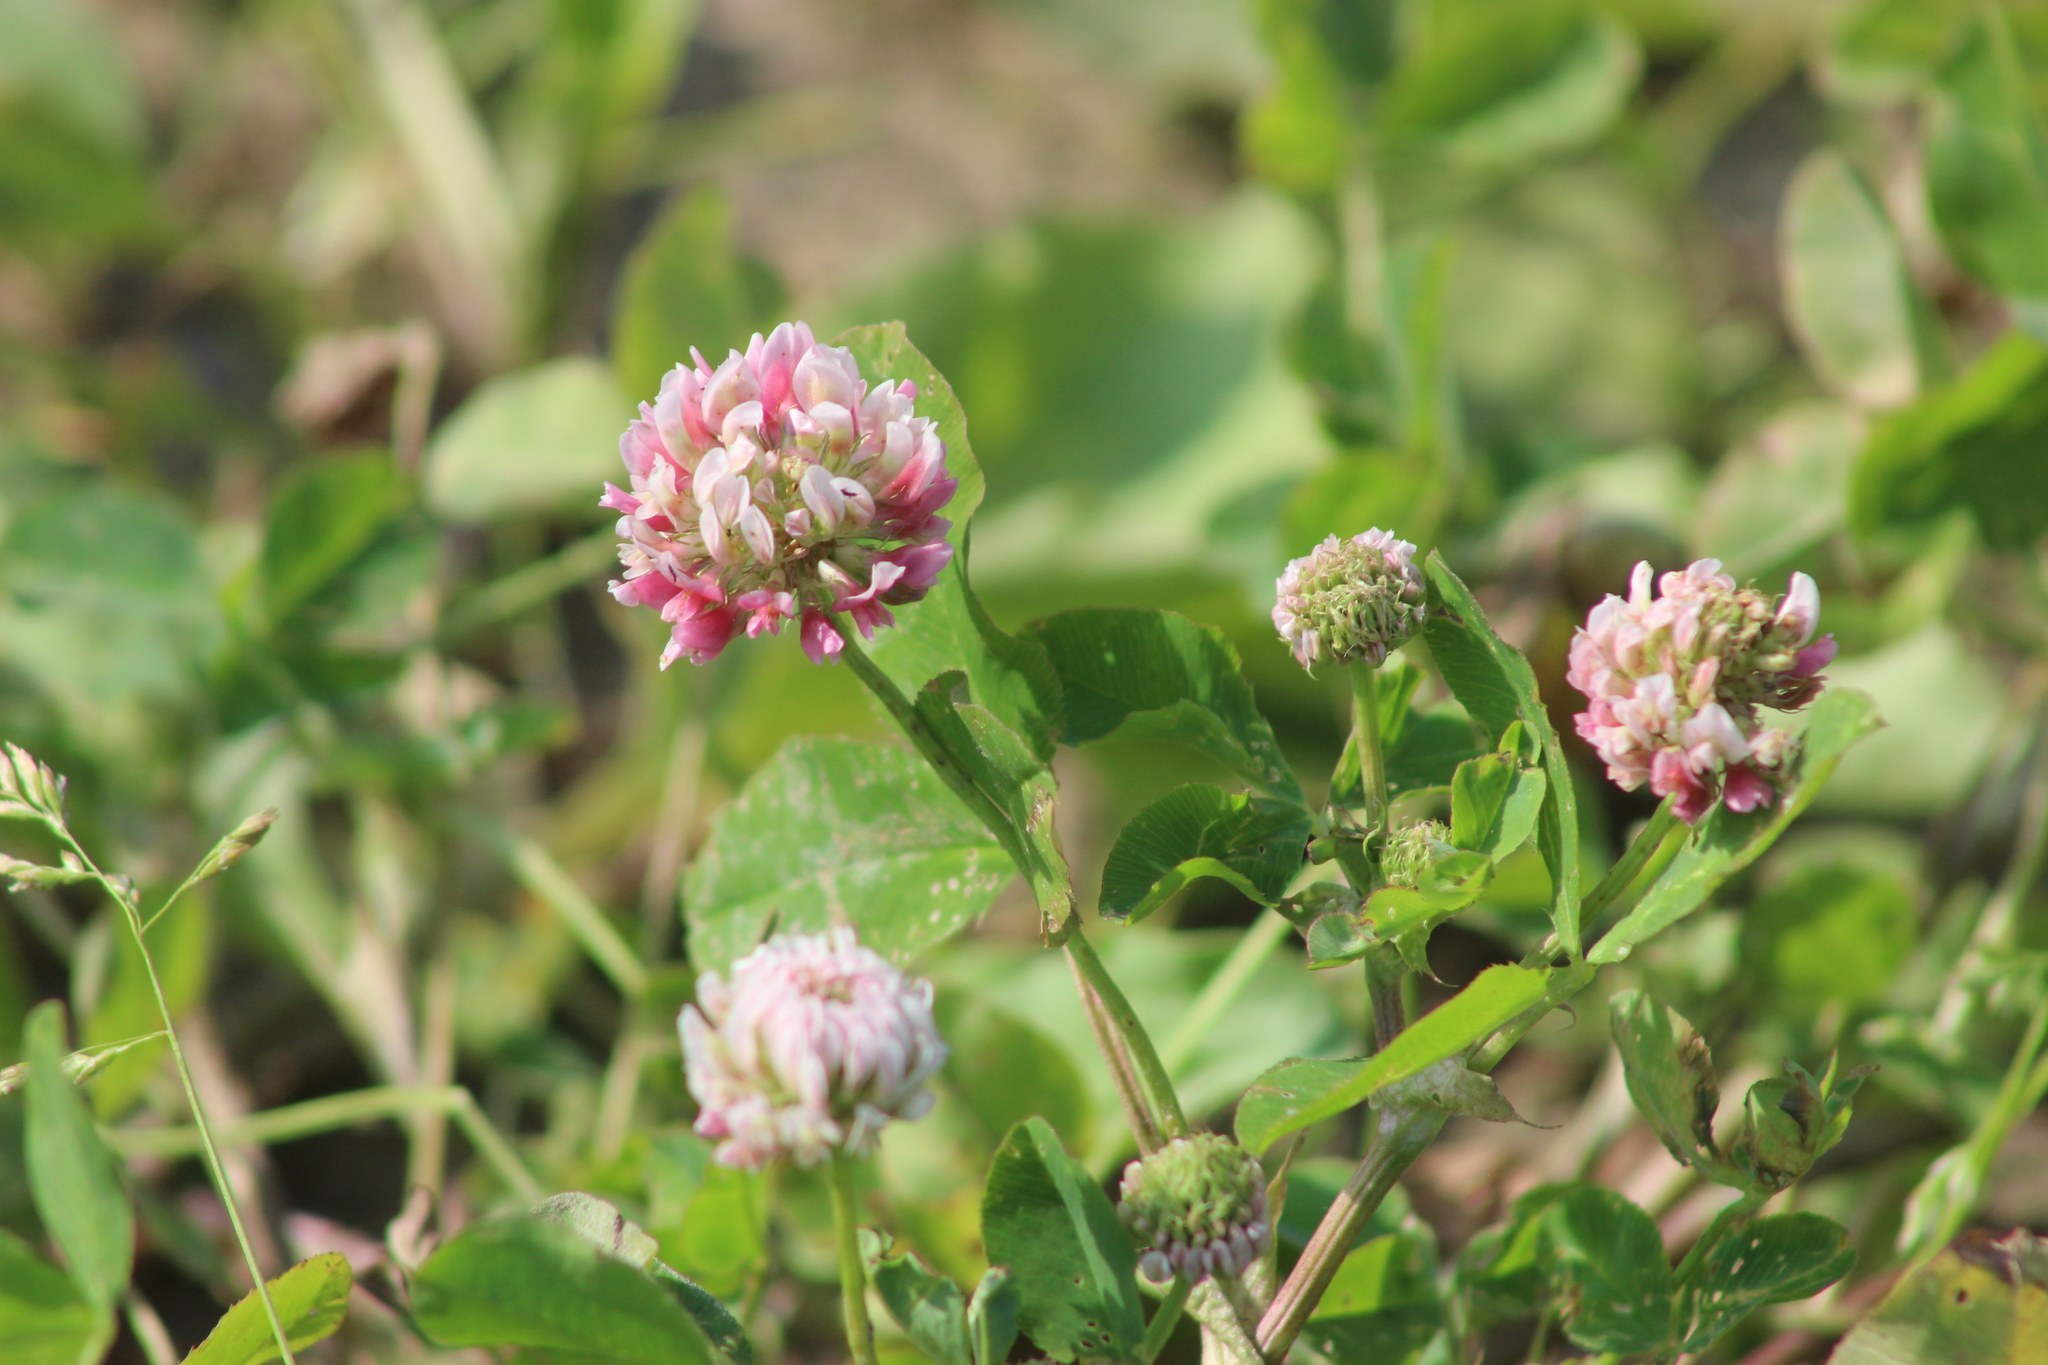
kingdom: Plantae
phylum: Tracheophyta
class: Magnoliopsida
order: Fabales
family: Fabaceae
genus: Trifolium
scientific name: Trifolium hybridum
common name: Alsike clover
